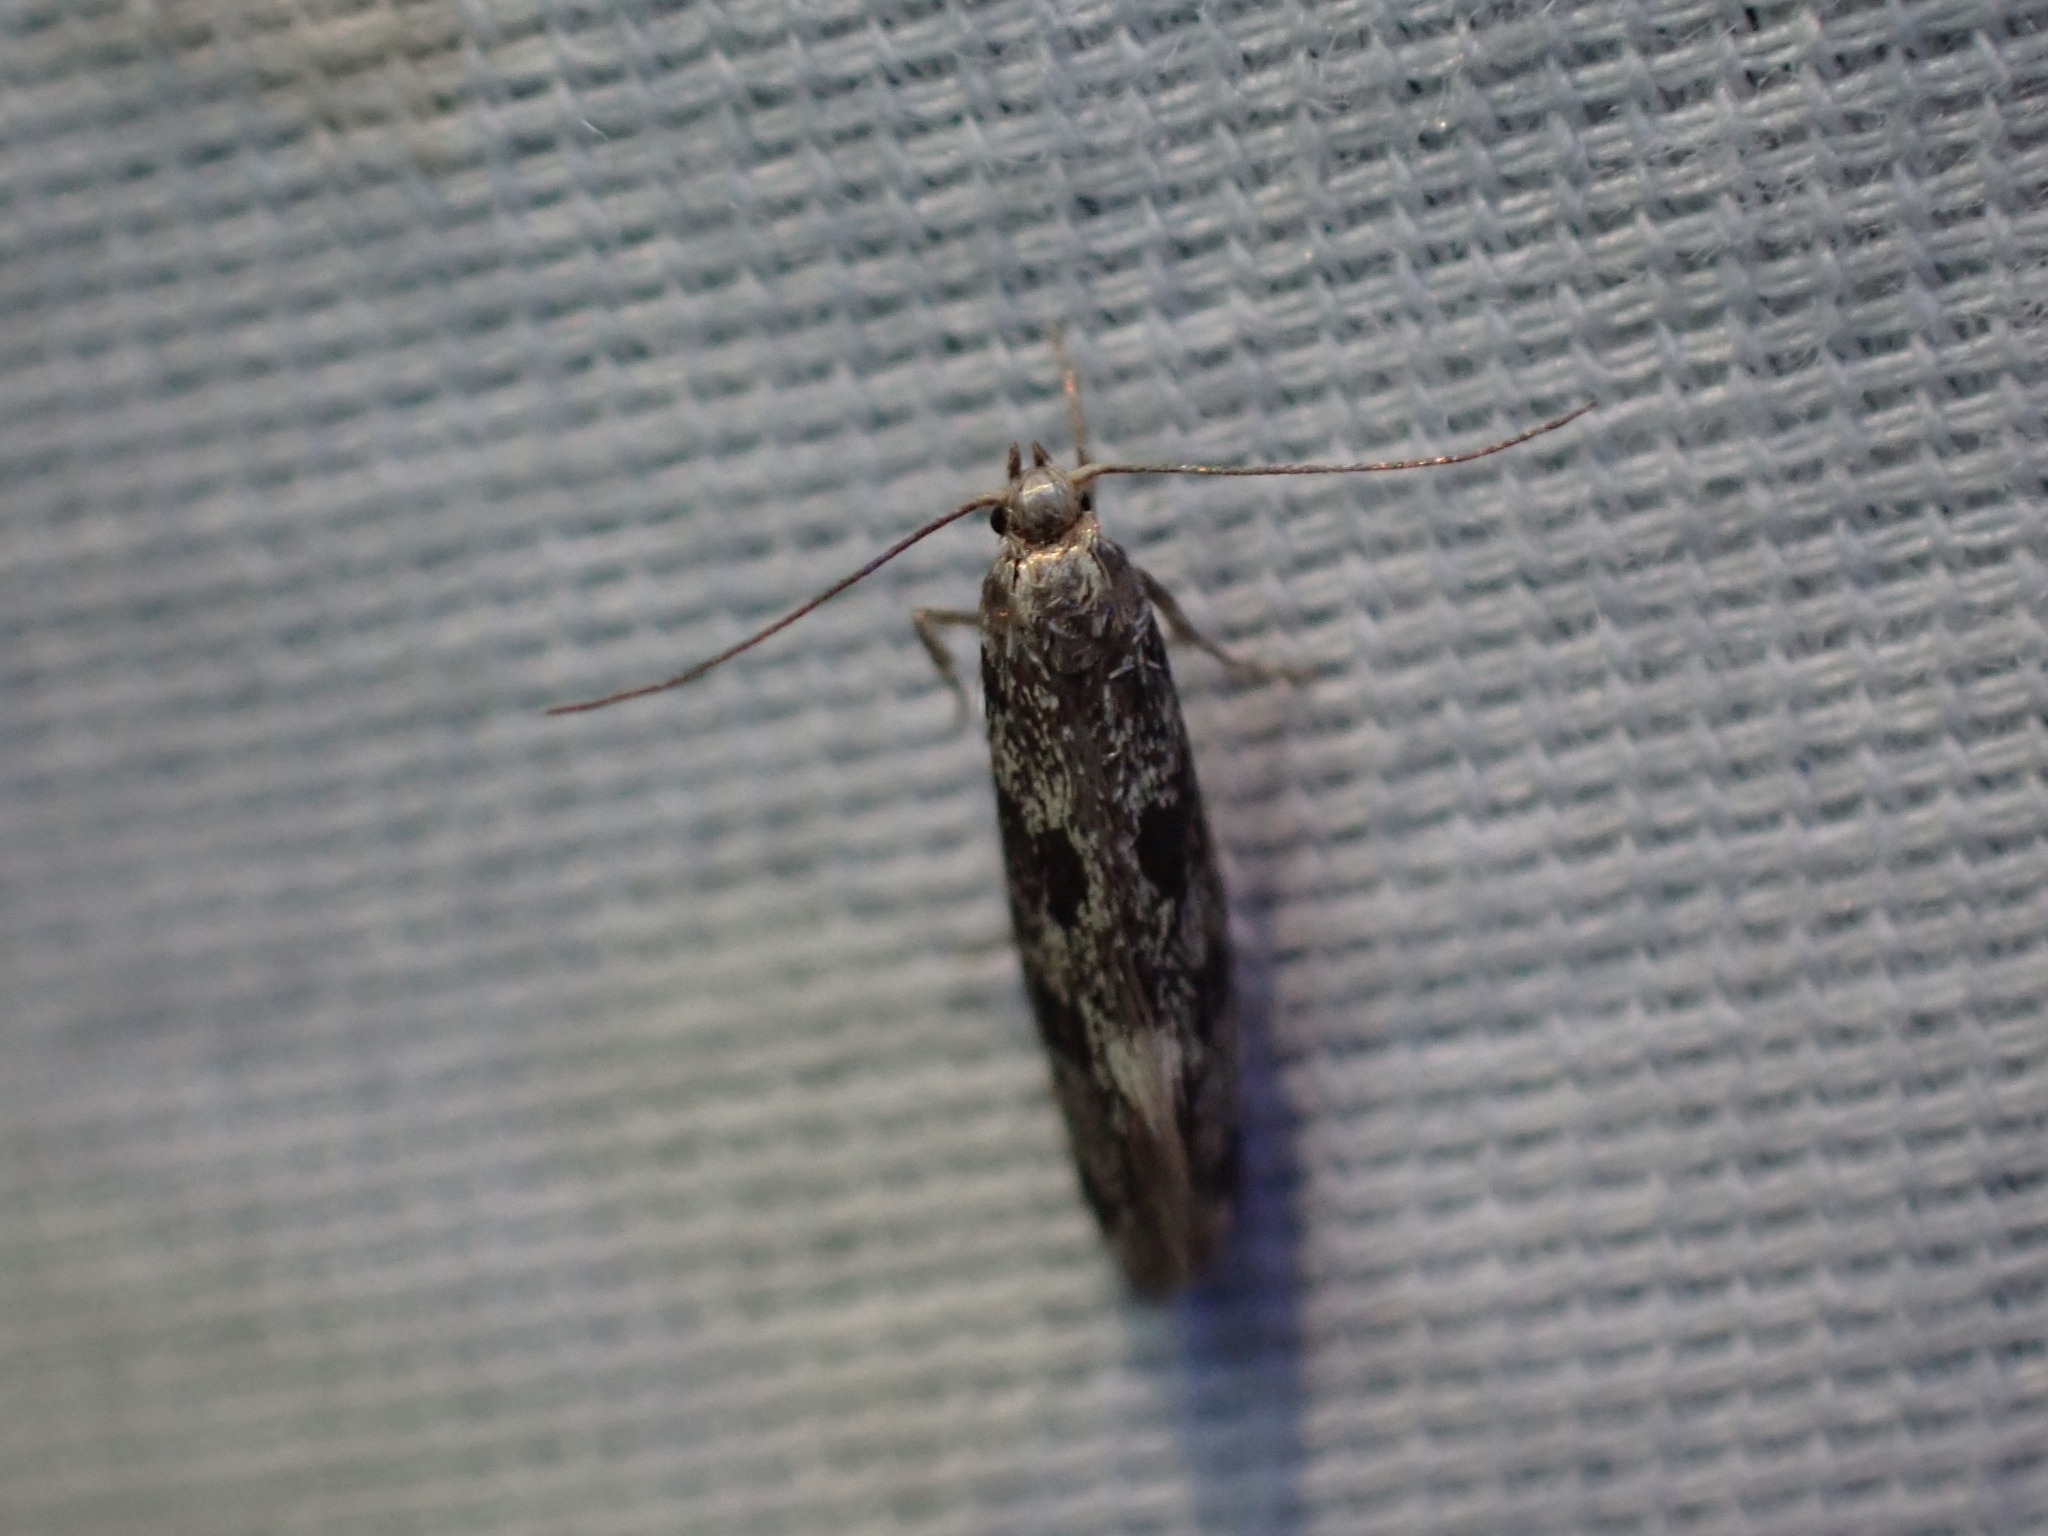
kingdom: Animalia
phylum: Arthropoda
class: Insecta
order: Lepidoptera
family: Oecophoridae
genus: Denisia
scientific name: Denisia haydenella
